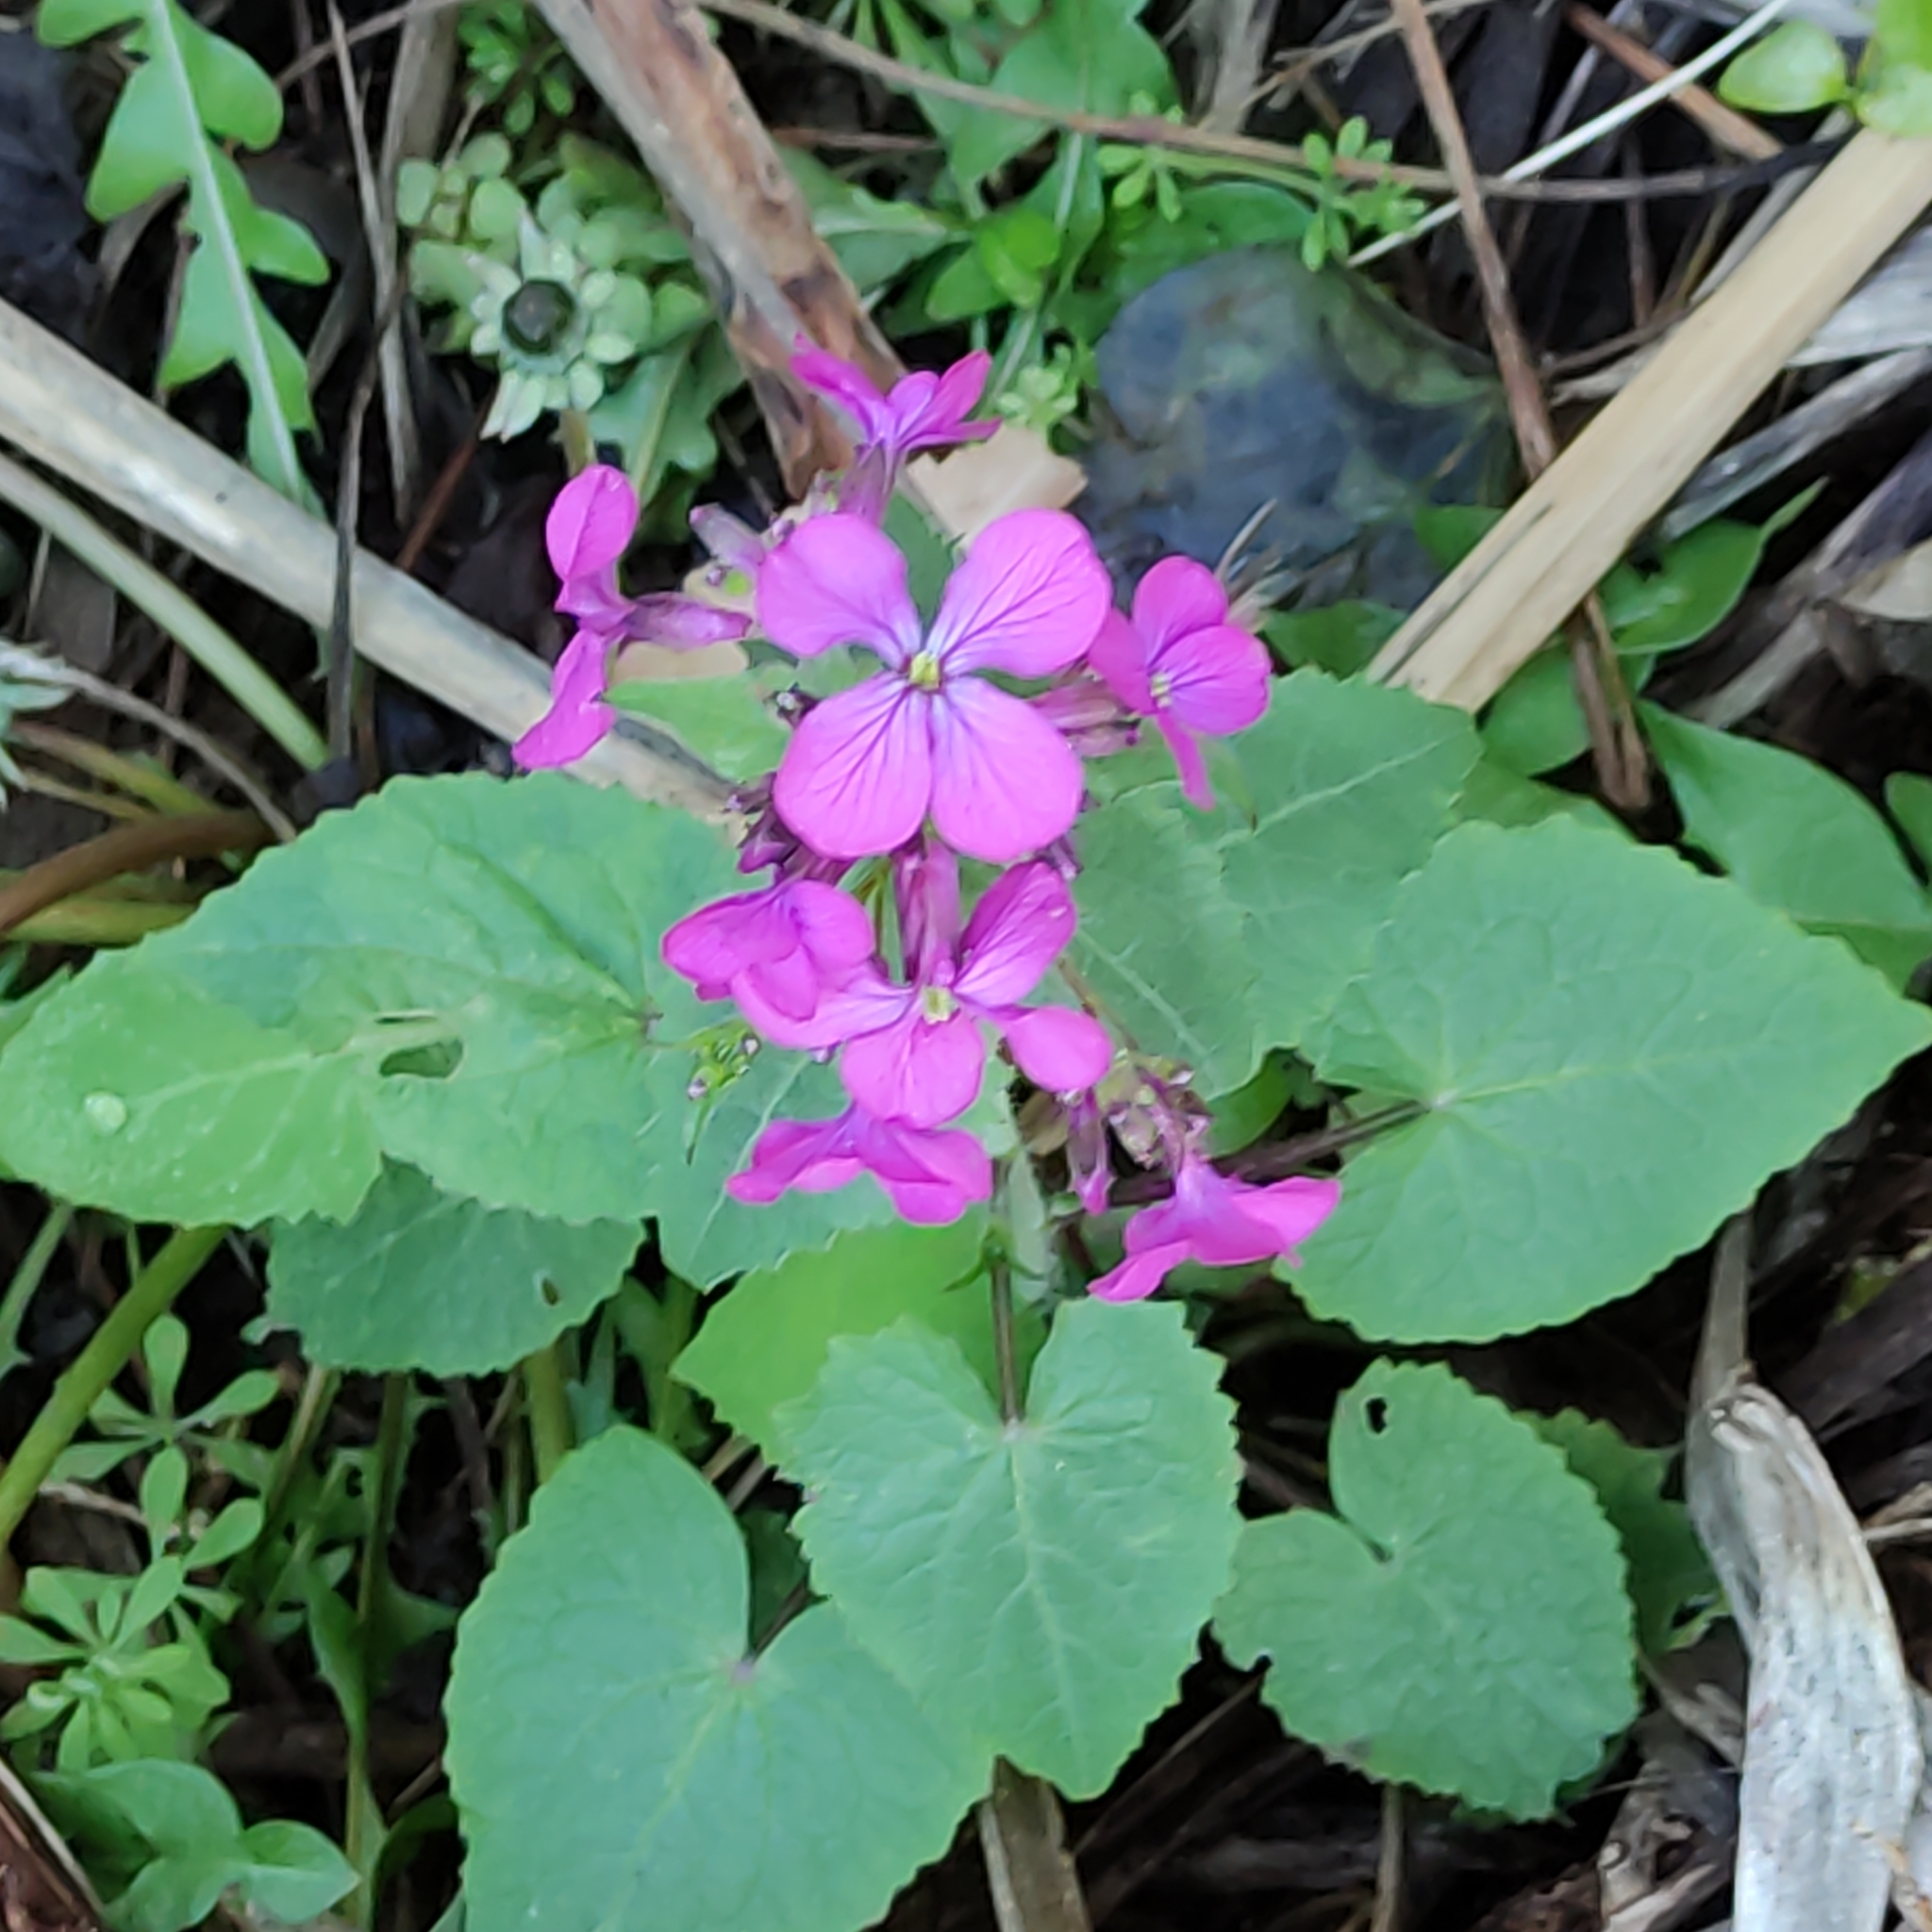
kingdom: Plantae
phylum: Tracheophyta
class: Magnoliopsida
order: Brassicales
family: Brassicaceae
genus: Lunaria
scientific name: Lunaria annua
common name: Honesty
